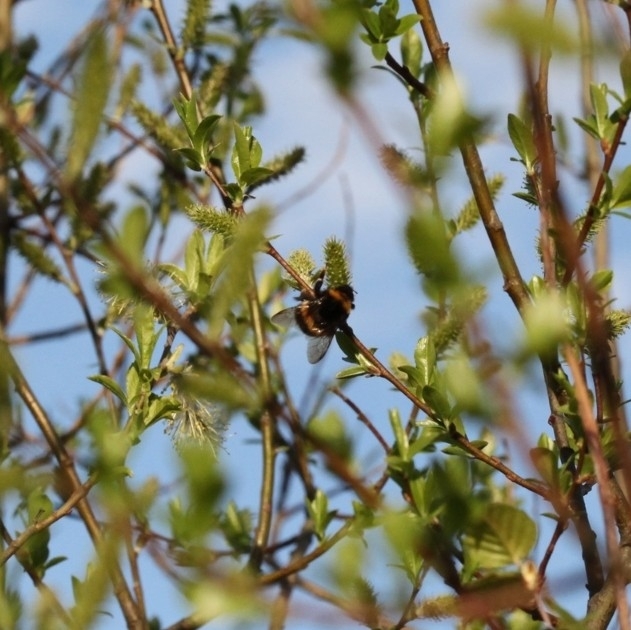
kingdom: Animalia
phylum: Arthropoda
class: Insecta
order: Hymenoptera
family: Apidae
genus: Bombus
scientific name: Bombus terrestris
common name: Buff-tailed bumblebee
